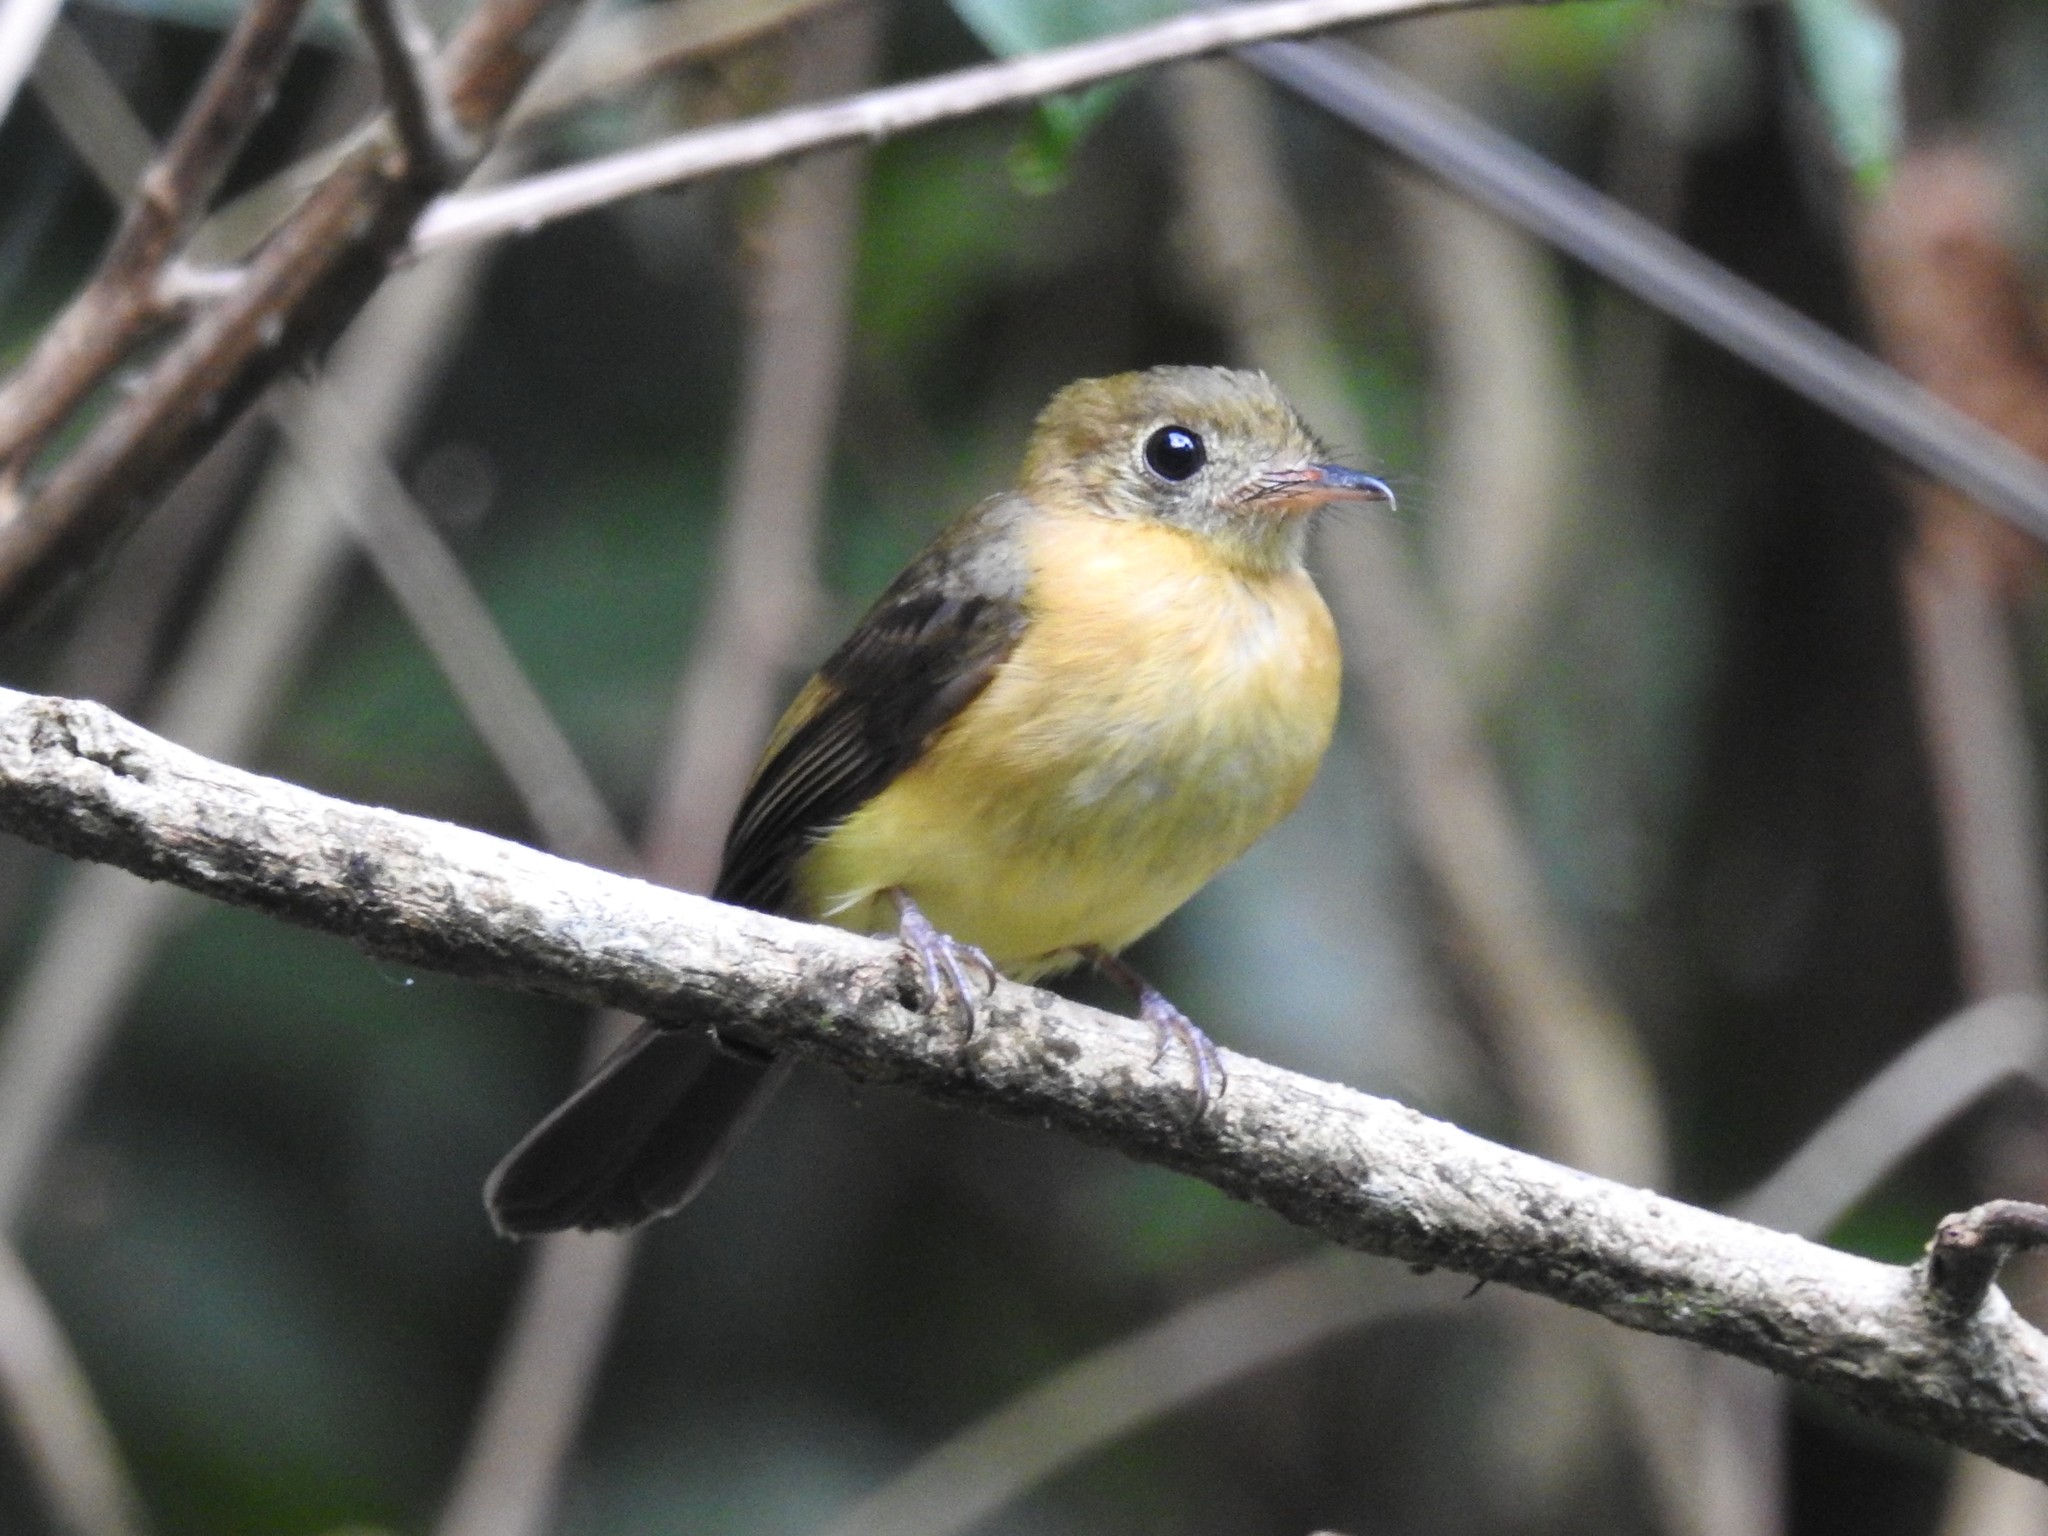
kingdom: Animalia
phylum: Chordata
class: Aves
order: Passeriformes
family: Tyrannidae
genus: Myiobius
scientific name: Myiobius barbatus
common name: Whiskered myiobius
